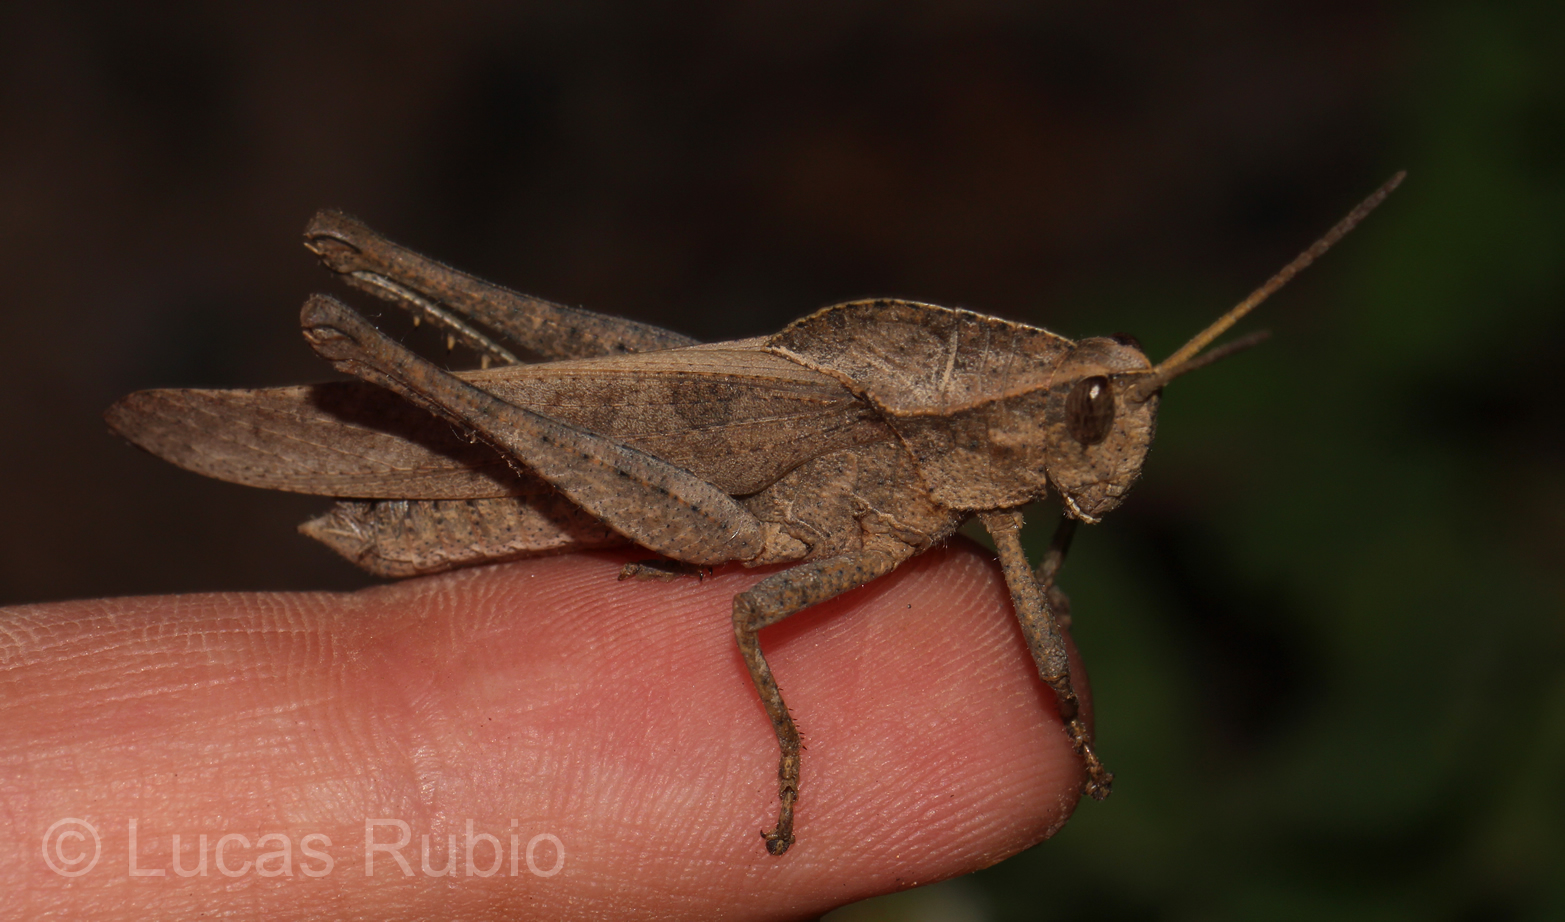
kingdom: Animalia
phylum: Arthropoda
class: Insecta
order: Orthoptera
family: Romaleidae
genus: Xyleus
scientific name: Xyleus discoideus
